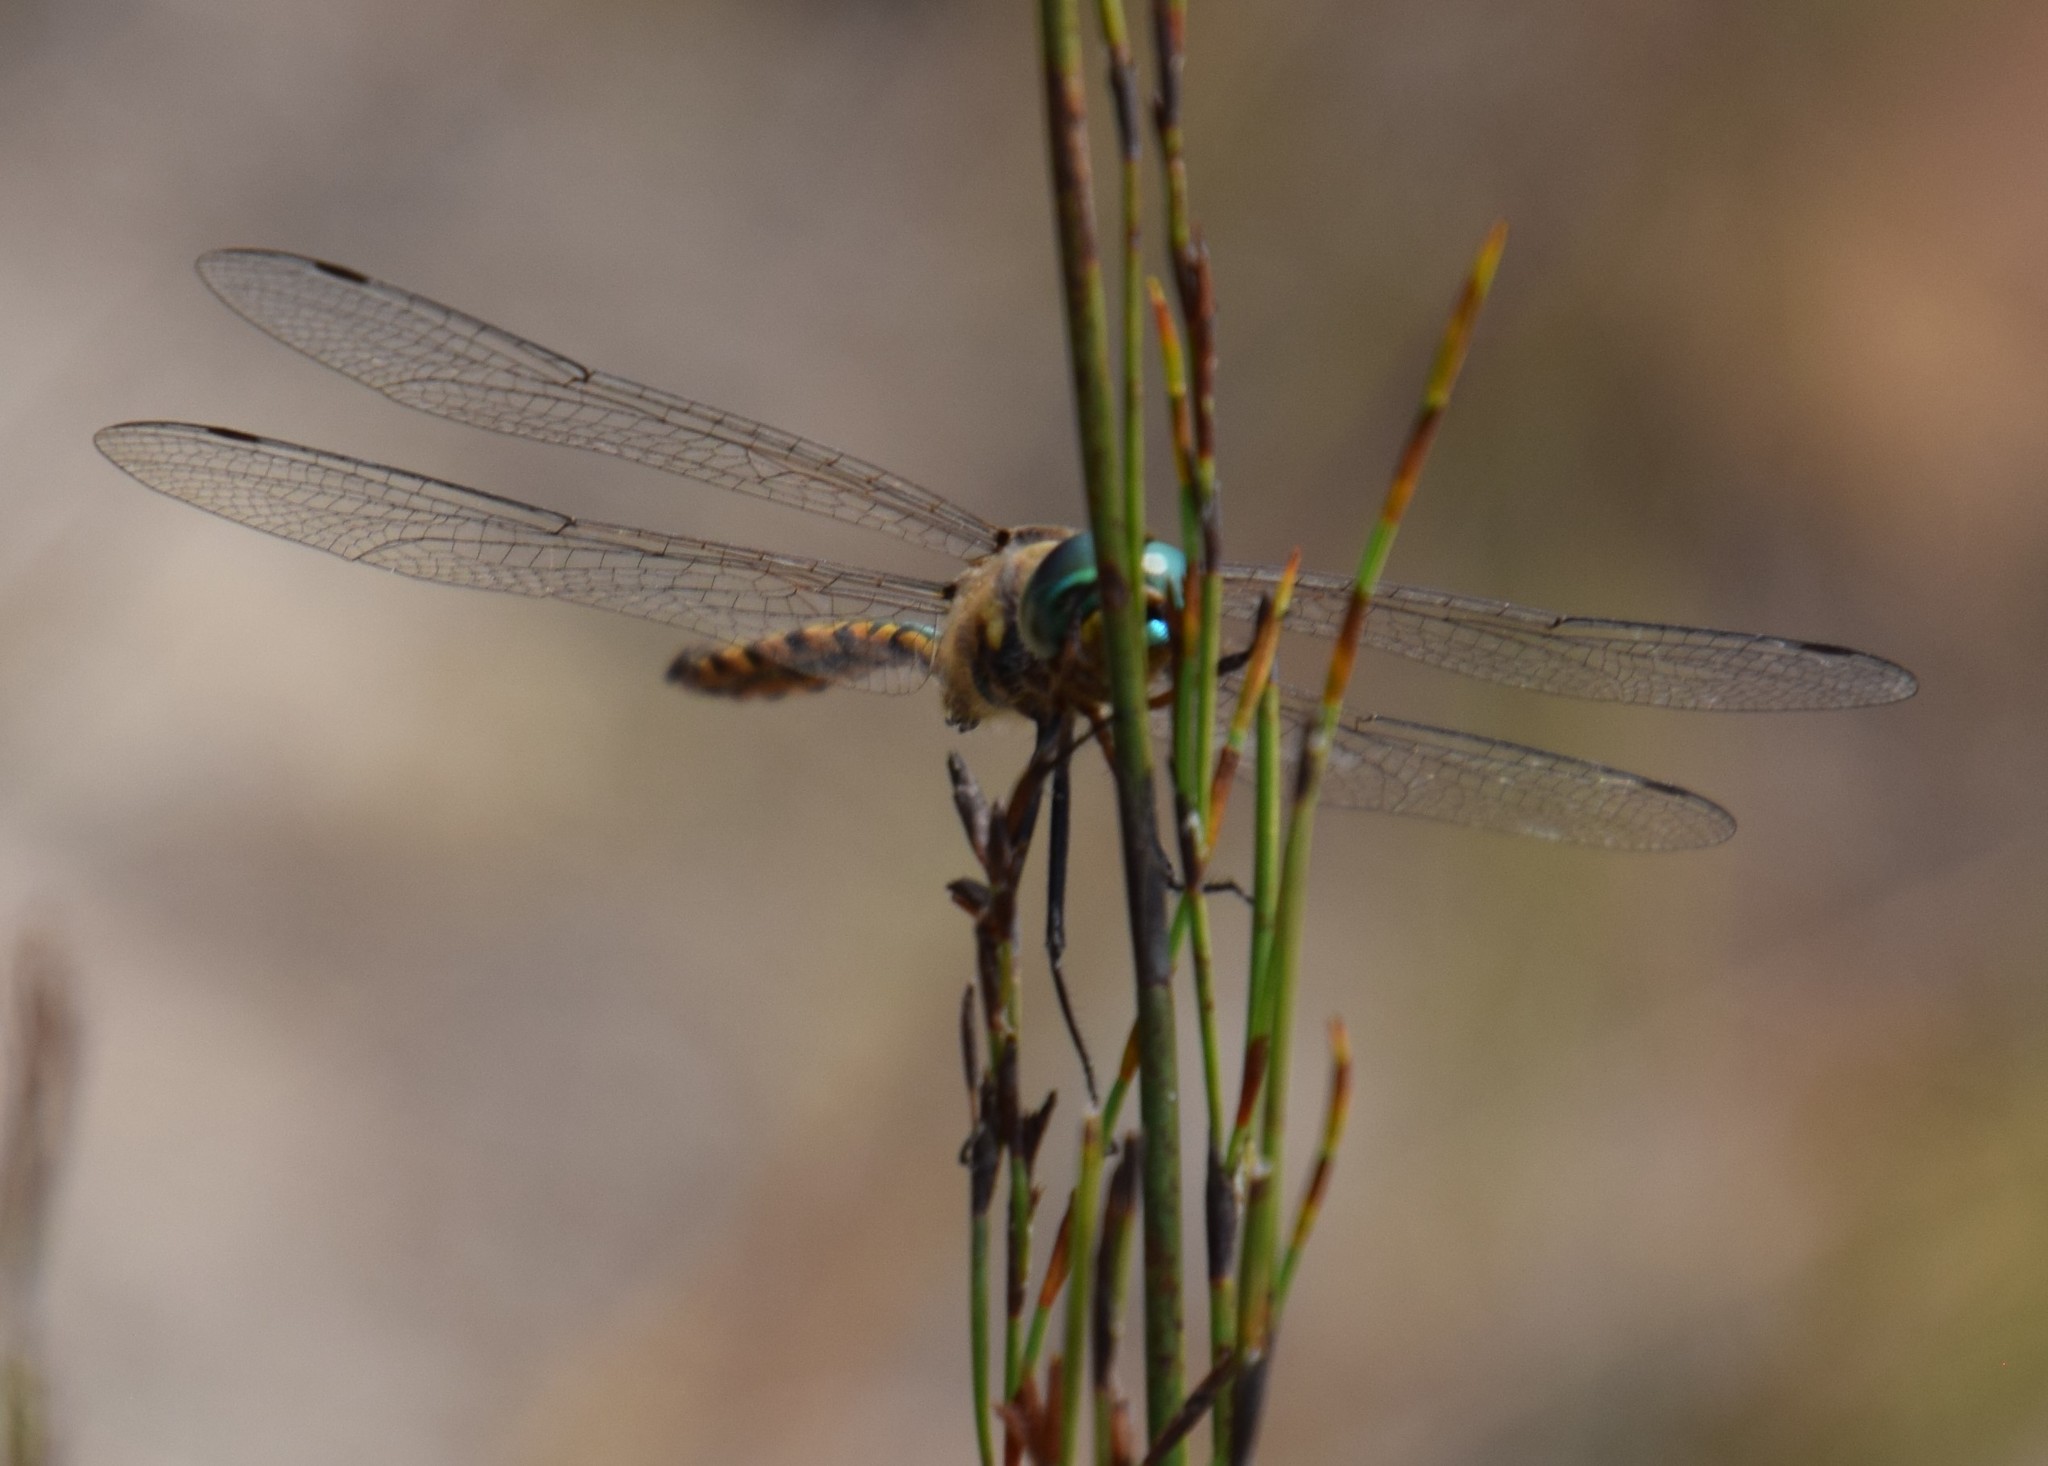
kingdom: Animalia
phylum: Arthropoda
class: Insecta
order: Odonata
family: Corduliidae
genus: Hemicordulia
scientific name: Hemicordulia australiae
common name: Sentry dragonfly
